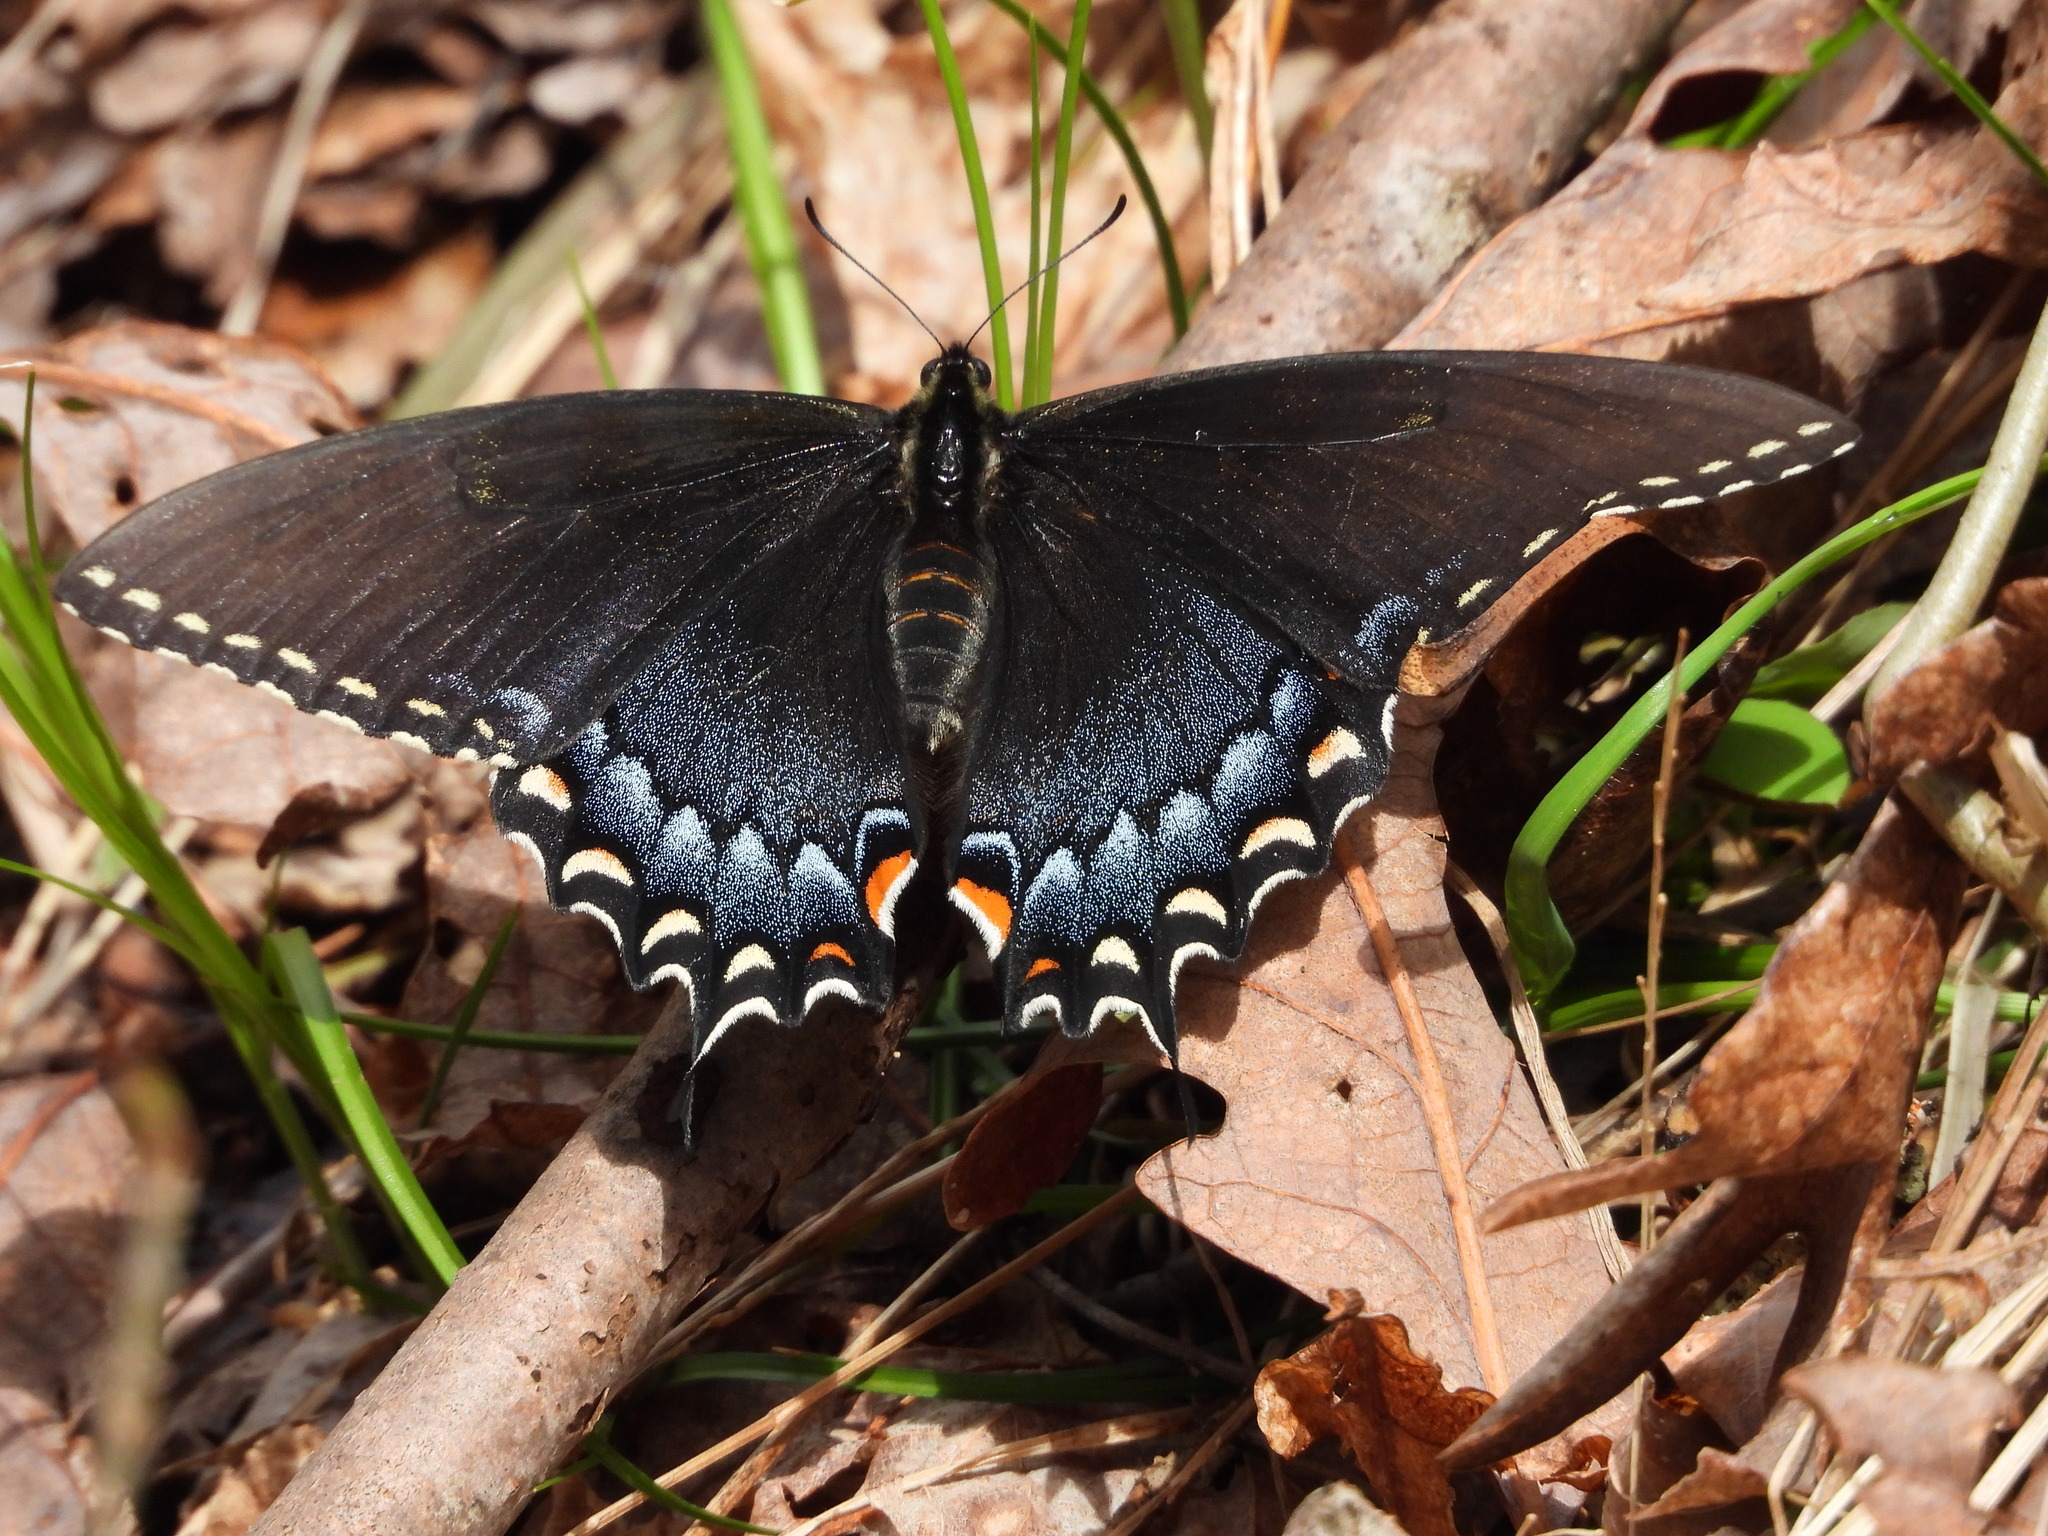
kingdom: Animalia
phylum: Arthropoda
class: Insecta
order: Lepidoptera
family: Papilionidae
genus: Papilio
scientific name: Papilio glaucus
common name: Tiger swallowtail
